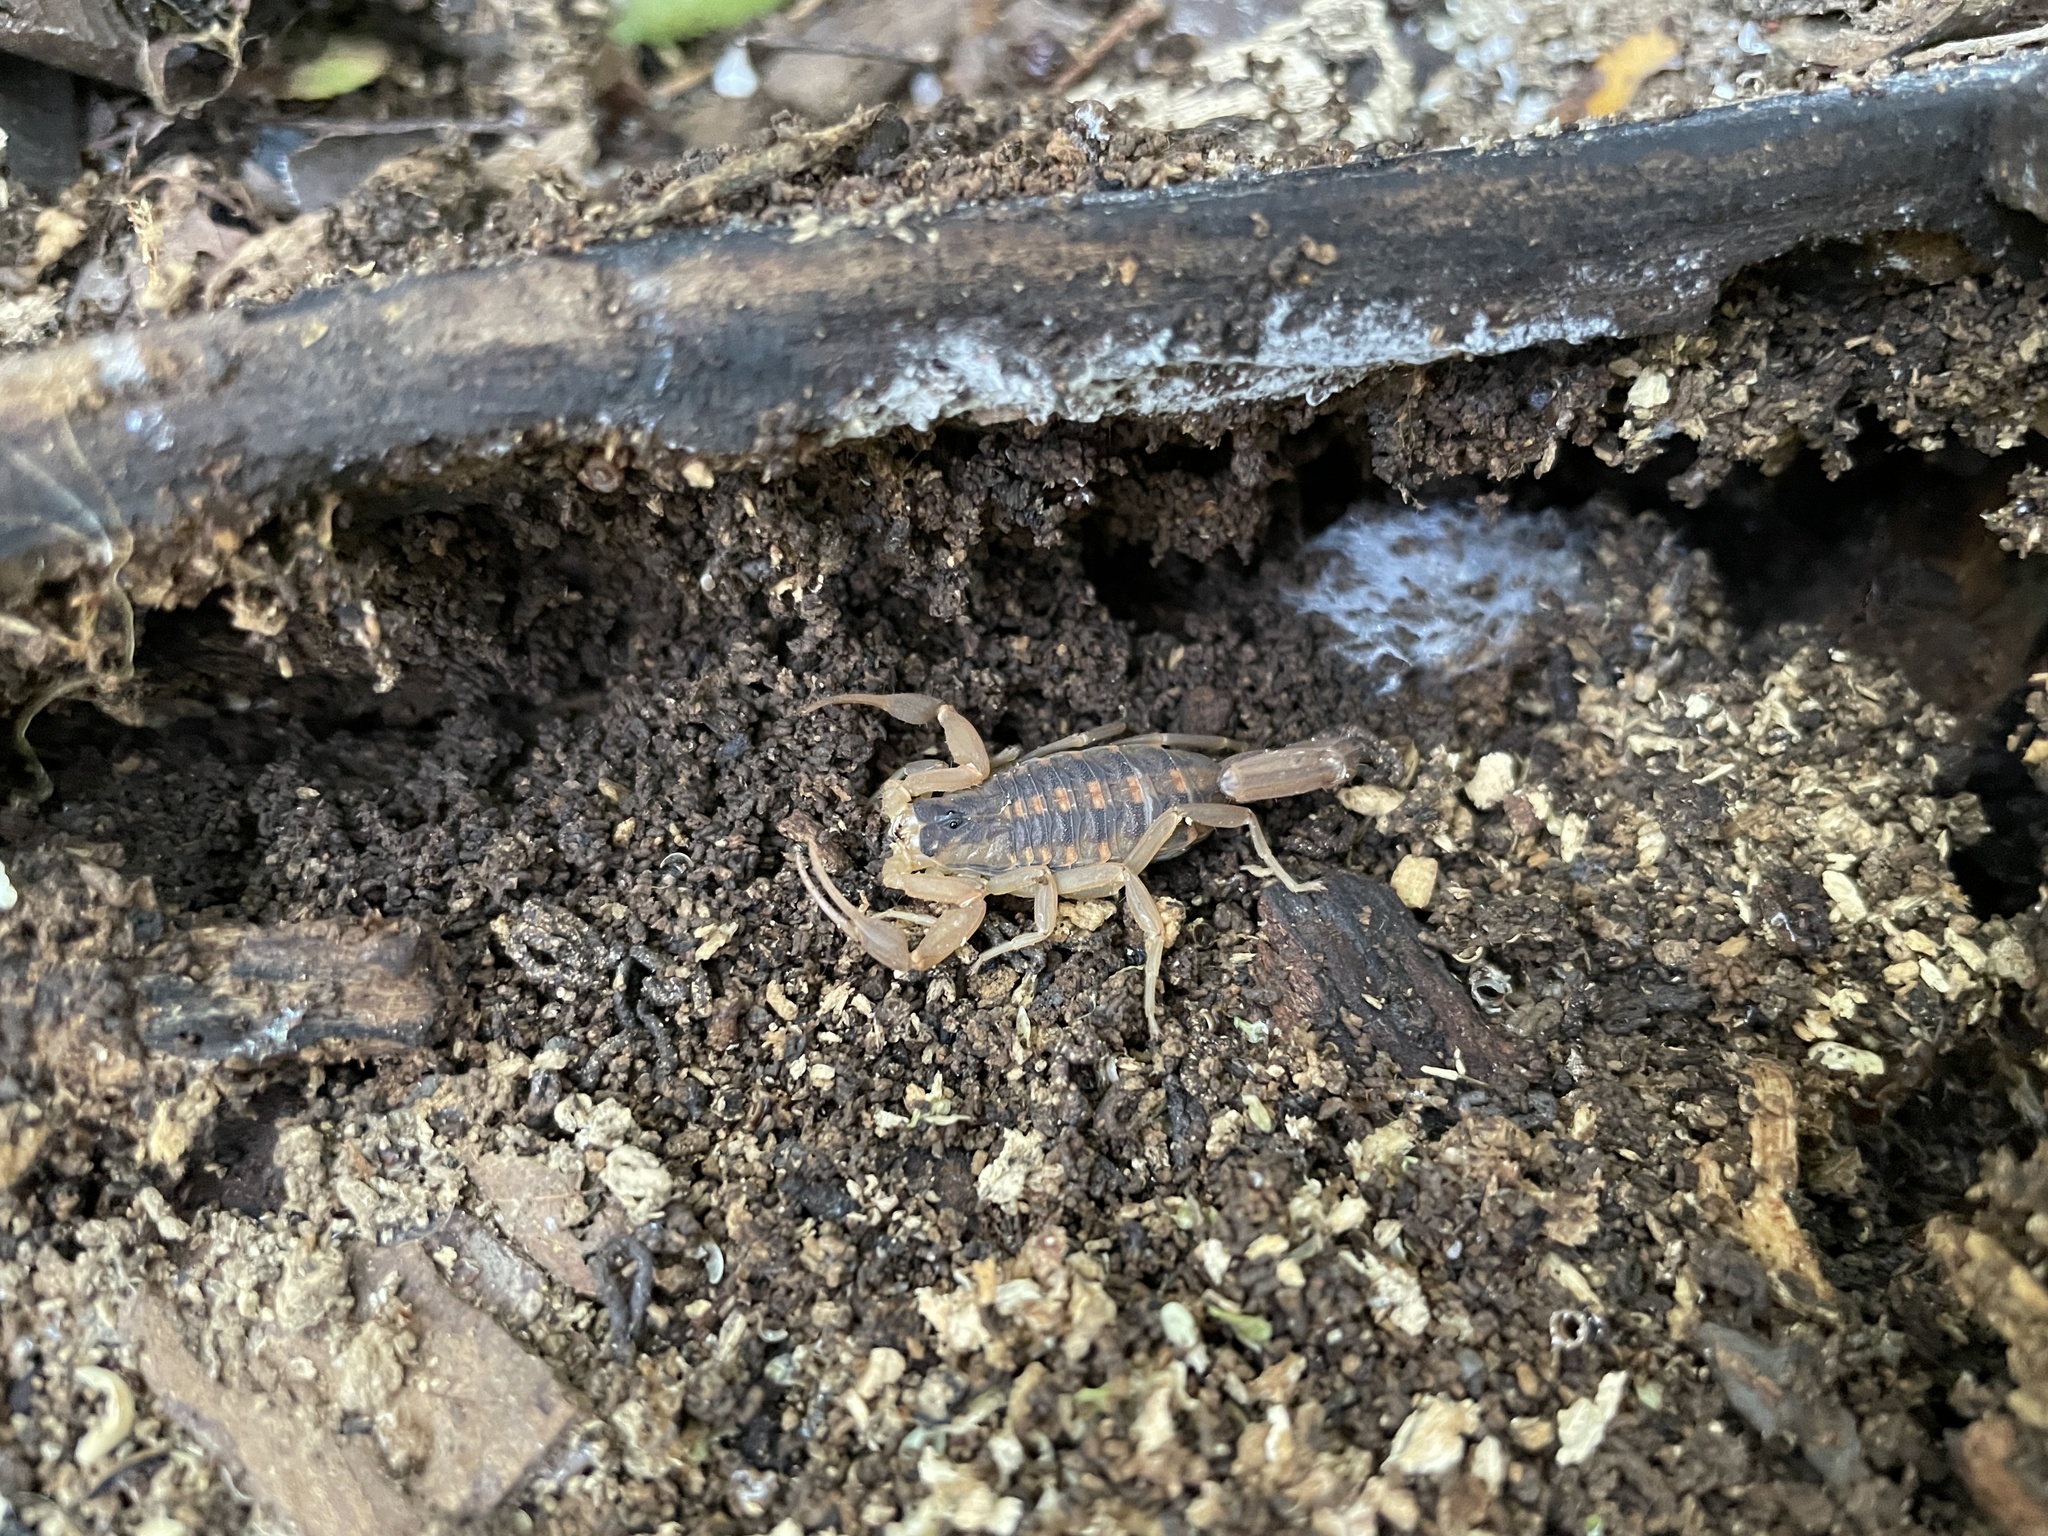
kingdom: Animalia
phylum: Arthropoda
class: Arachnida
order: Scorpiones
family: Buthidae
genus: Centruroides
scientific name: Centruroides vittatus
